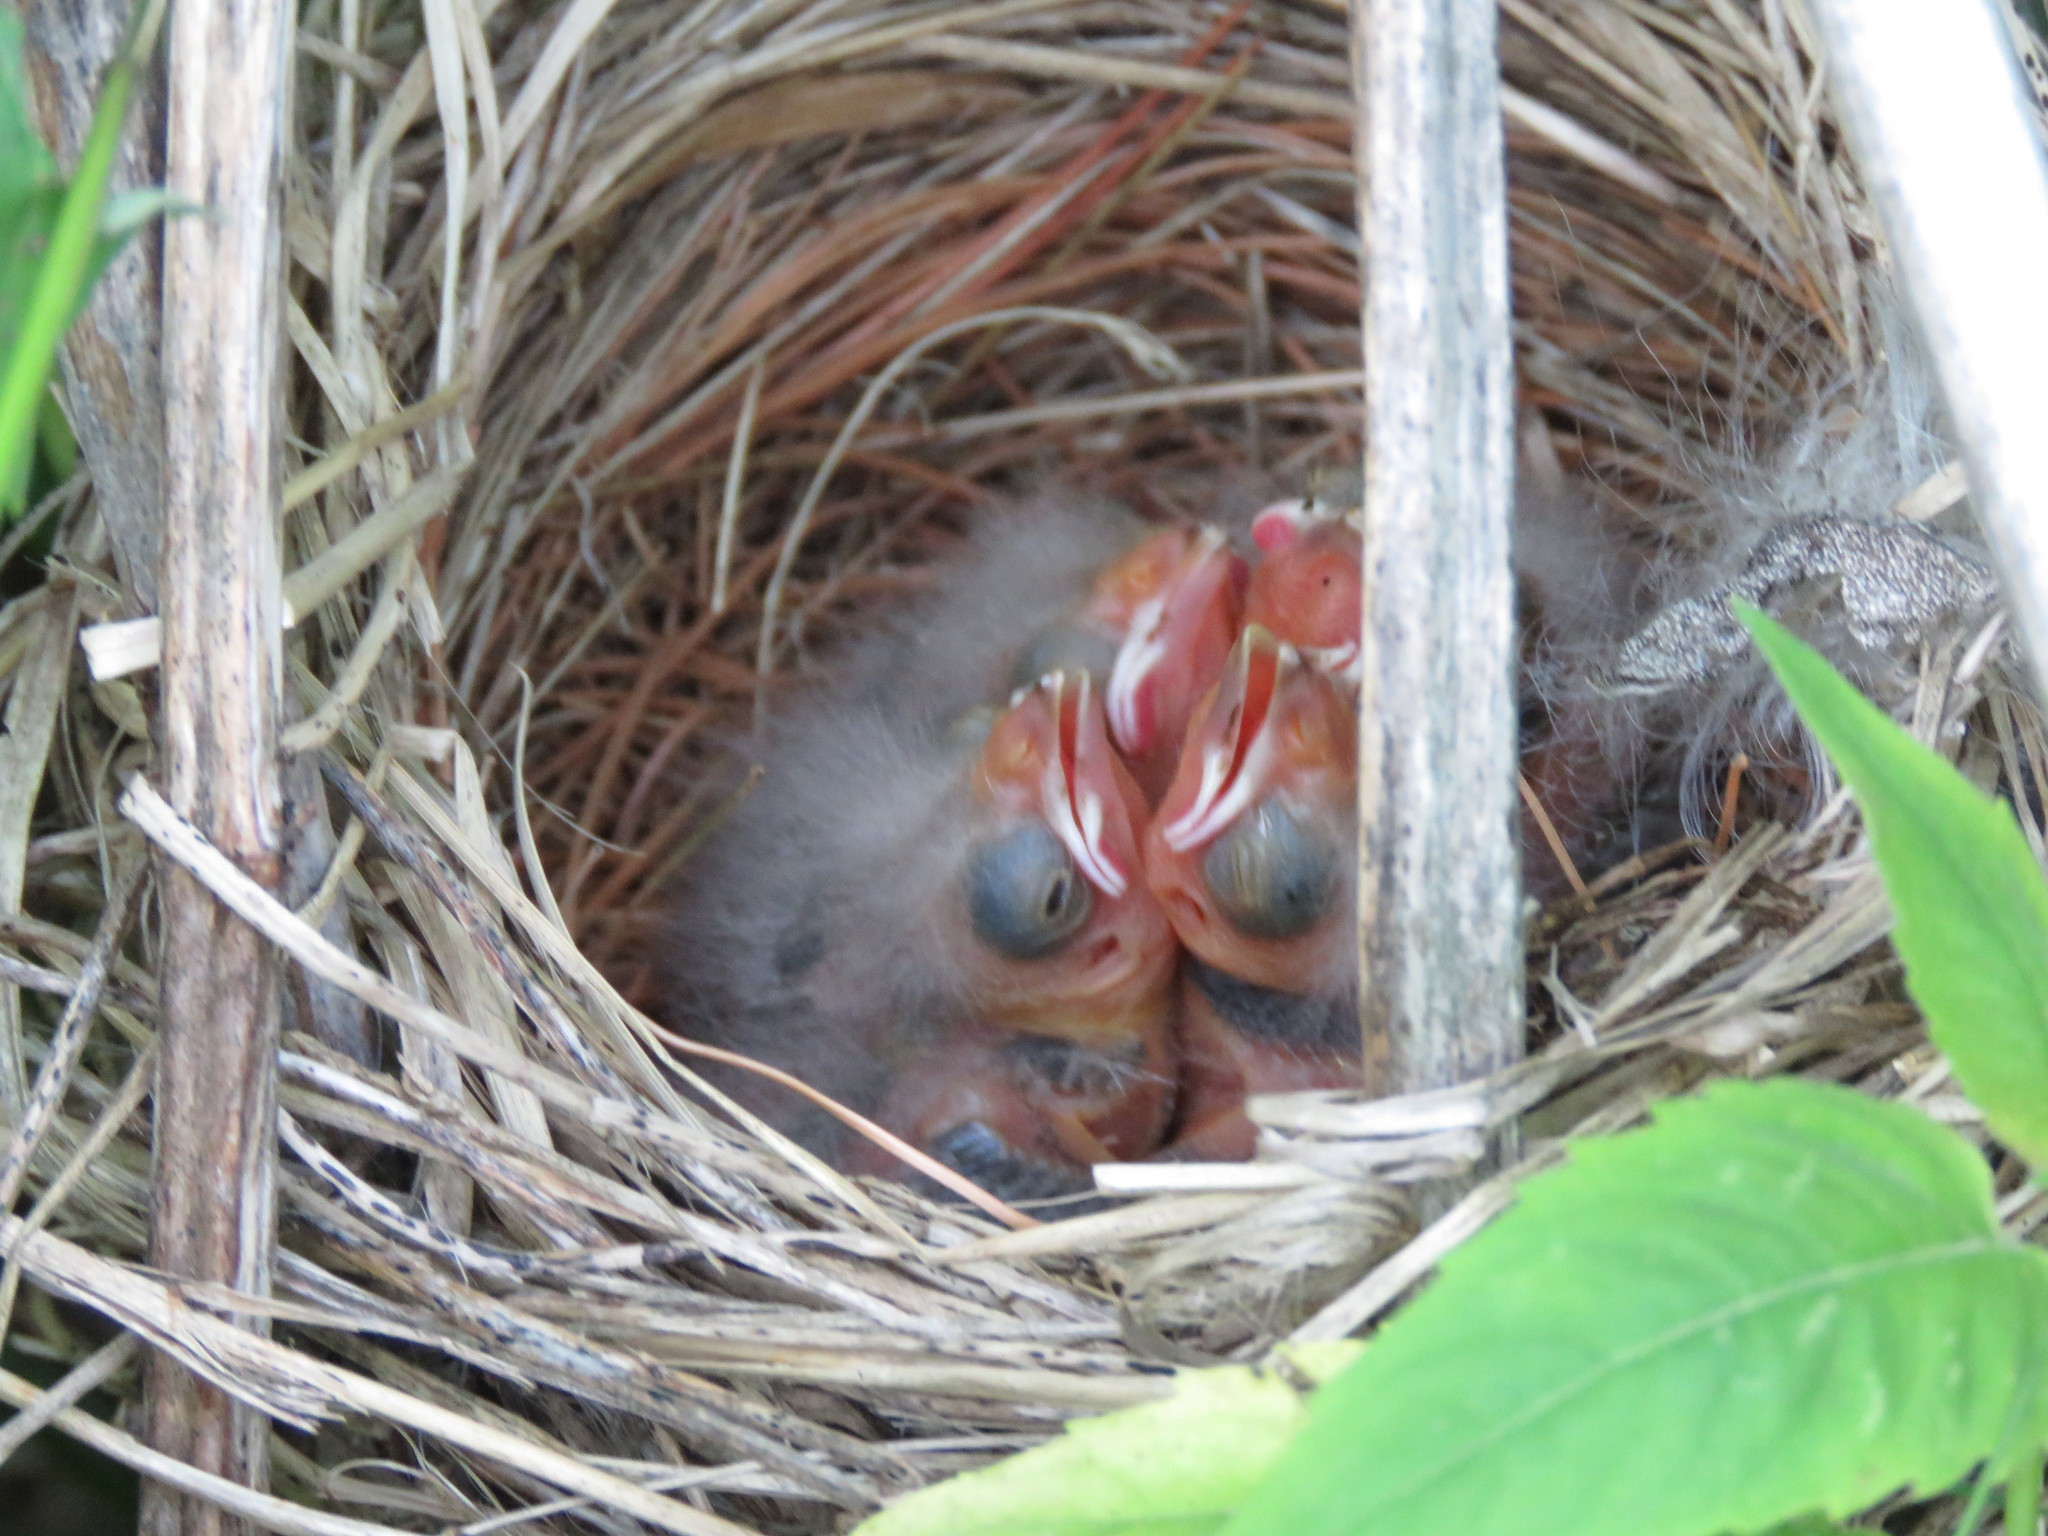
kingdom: Animalia
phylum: Chordata
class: Aves
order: Passeriformes
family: Icteridae
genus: Agelaius
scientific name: Agelaius phoeniceus
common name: Red-winged blackbird
